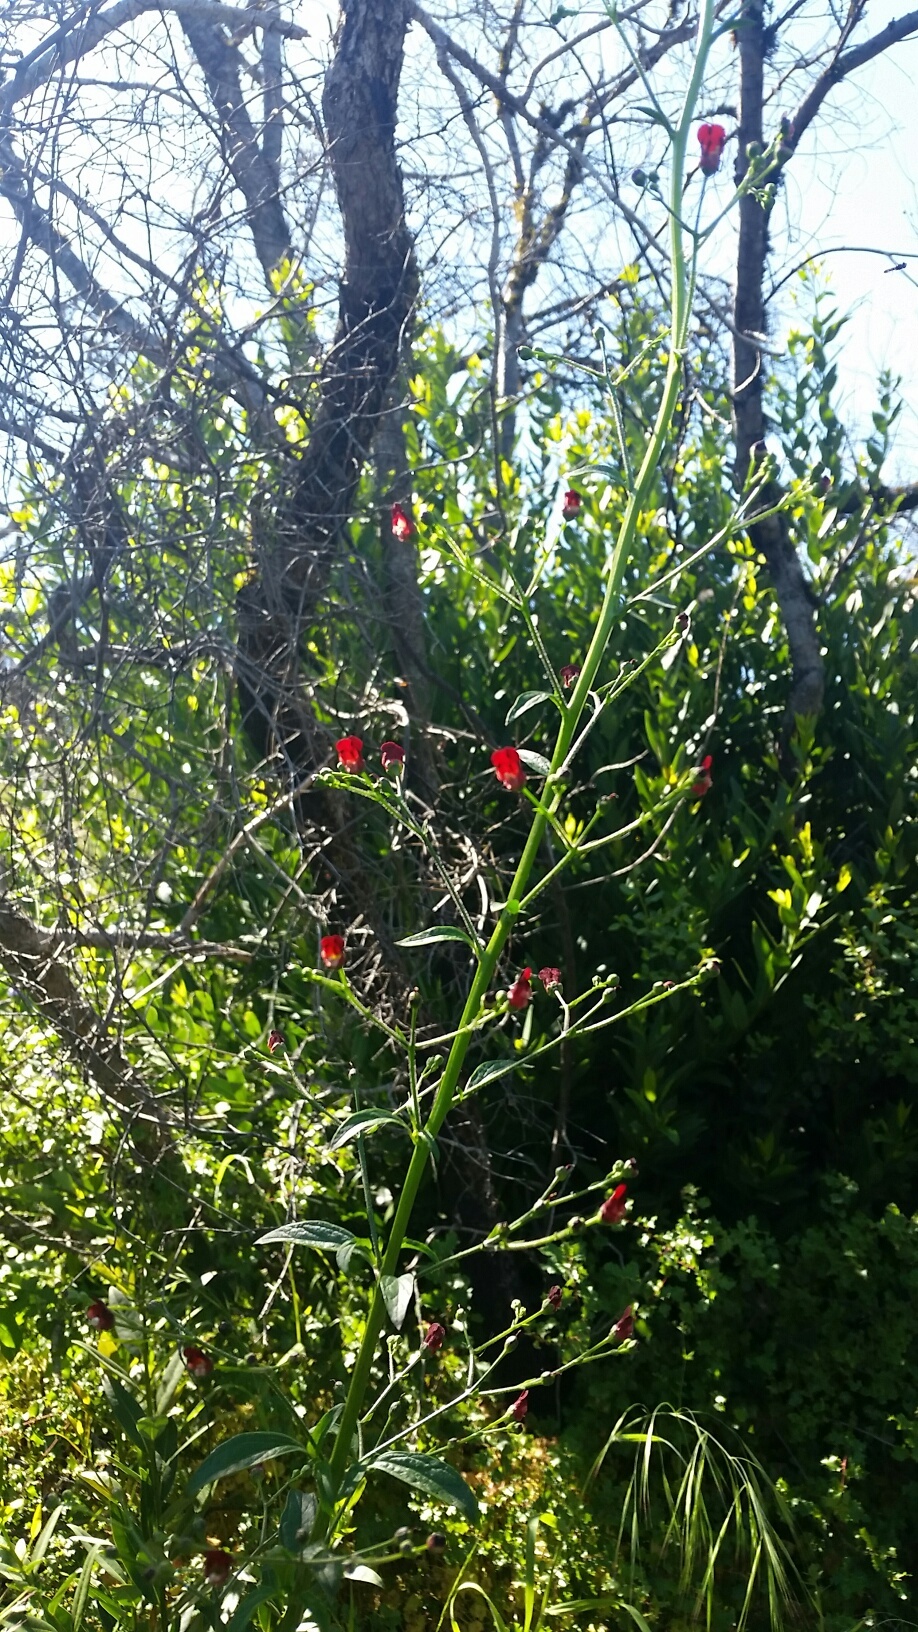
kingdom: Plantae
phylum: Tracheophyta
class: Magnoliopsida
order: Lamiales
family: Scrophulariaceae
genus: Scrophularia
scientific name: Scrophularia californica
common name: California figwort
